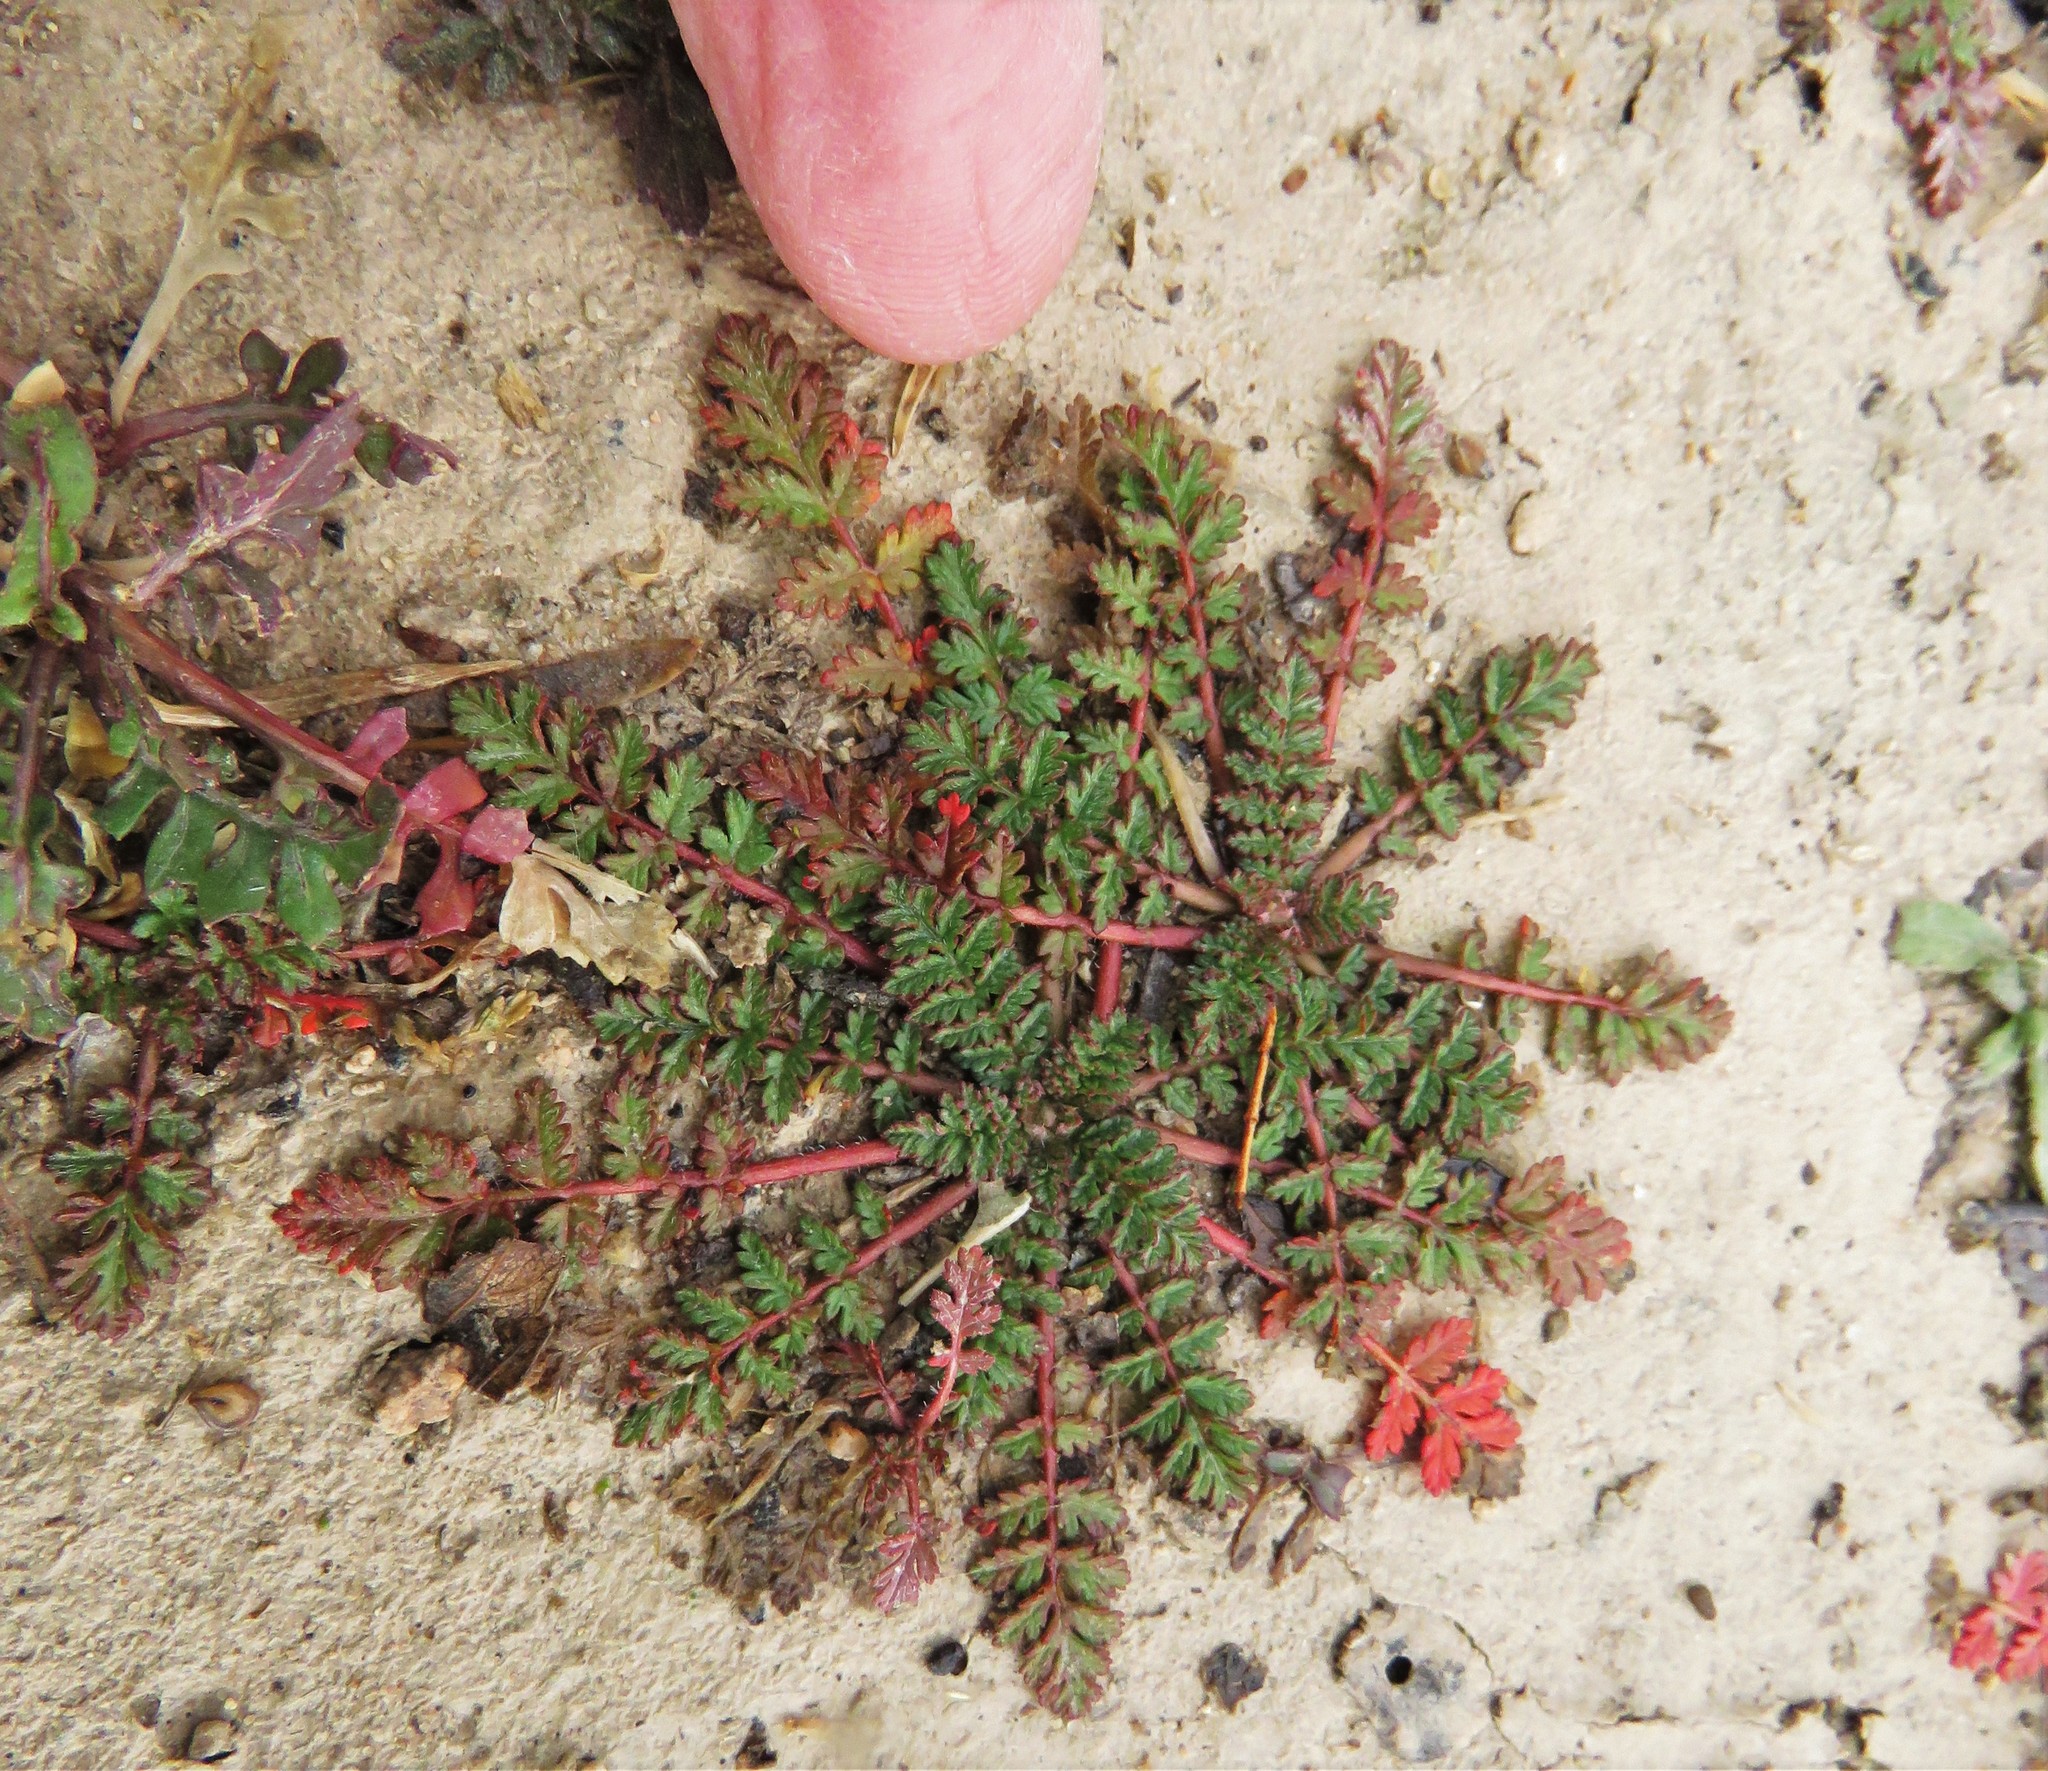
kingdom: Plantae
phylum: Tracheophyta
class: Magnoliopsida
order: Geraniales
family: Geraniaceae
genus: Erodium
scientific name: Erodium cicutarium
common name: Common stork's-bill
